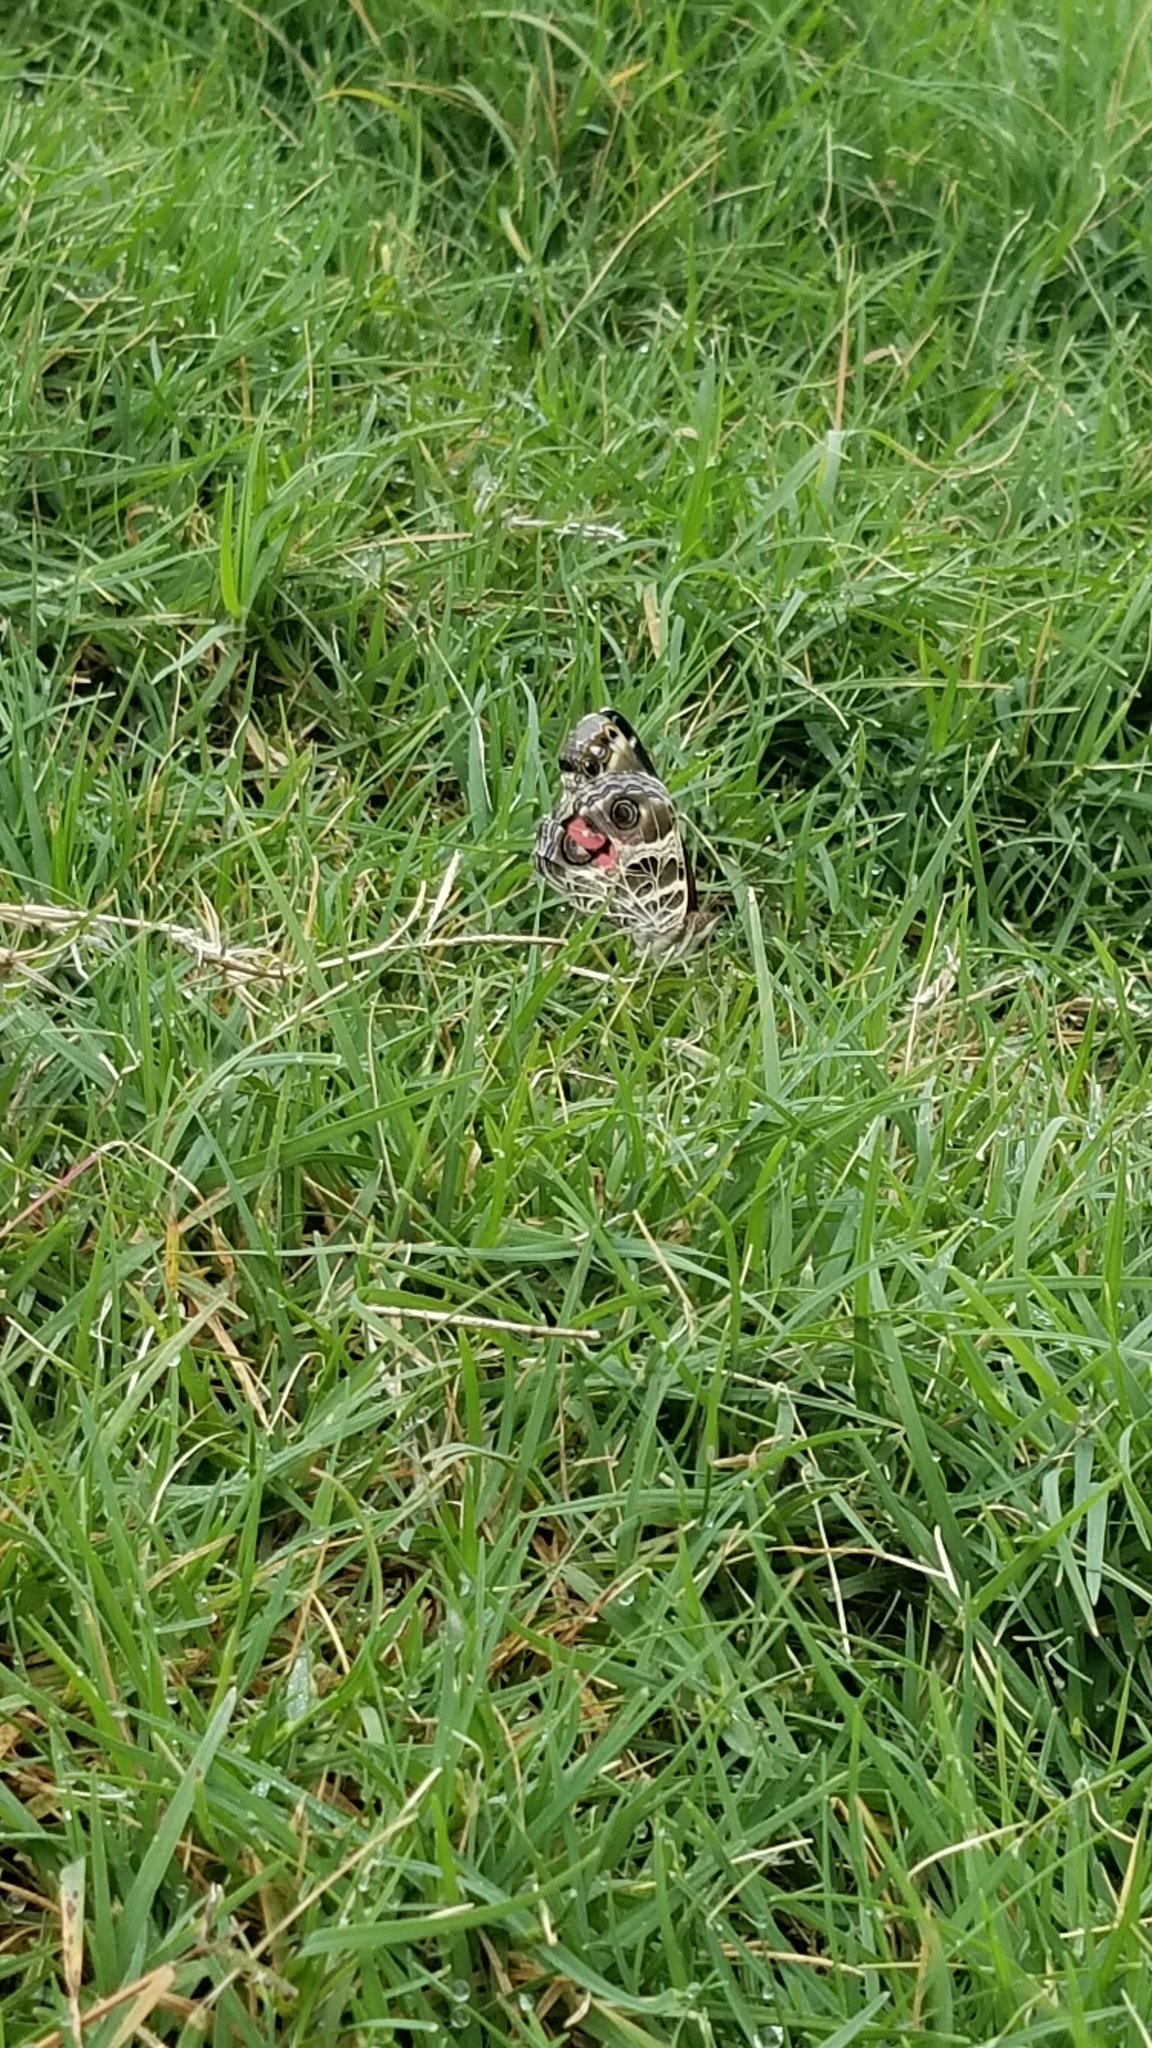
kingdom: Animalia
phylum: Arthropoda
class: Insecta
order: Lepidoptera
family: Nymphalidae
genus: Vanessa
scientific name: Vanessa virginiensis
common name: American lady
